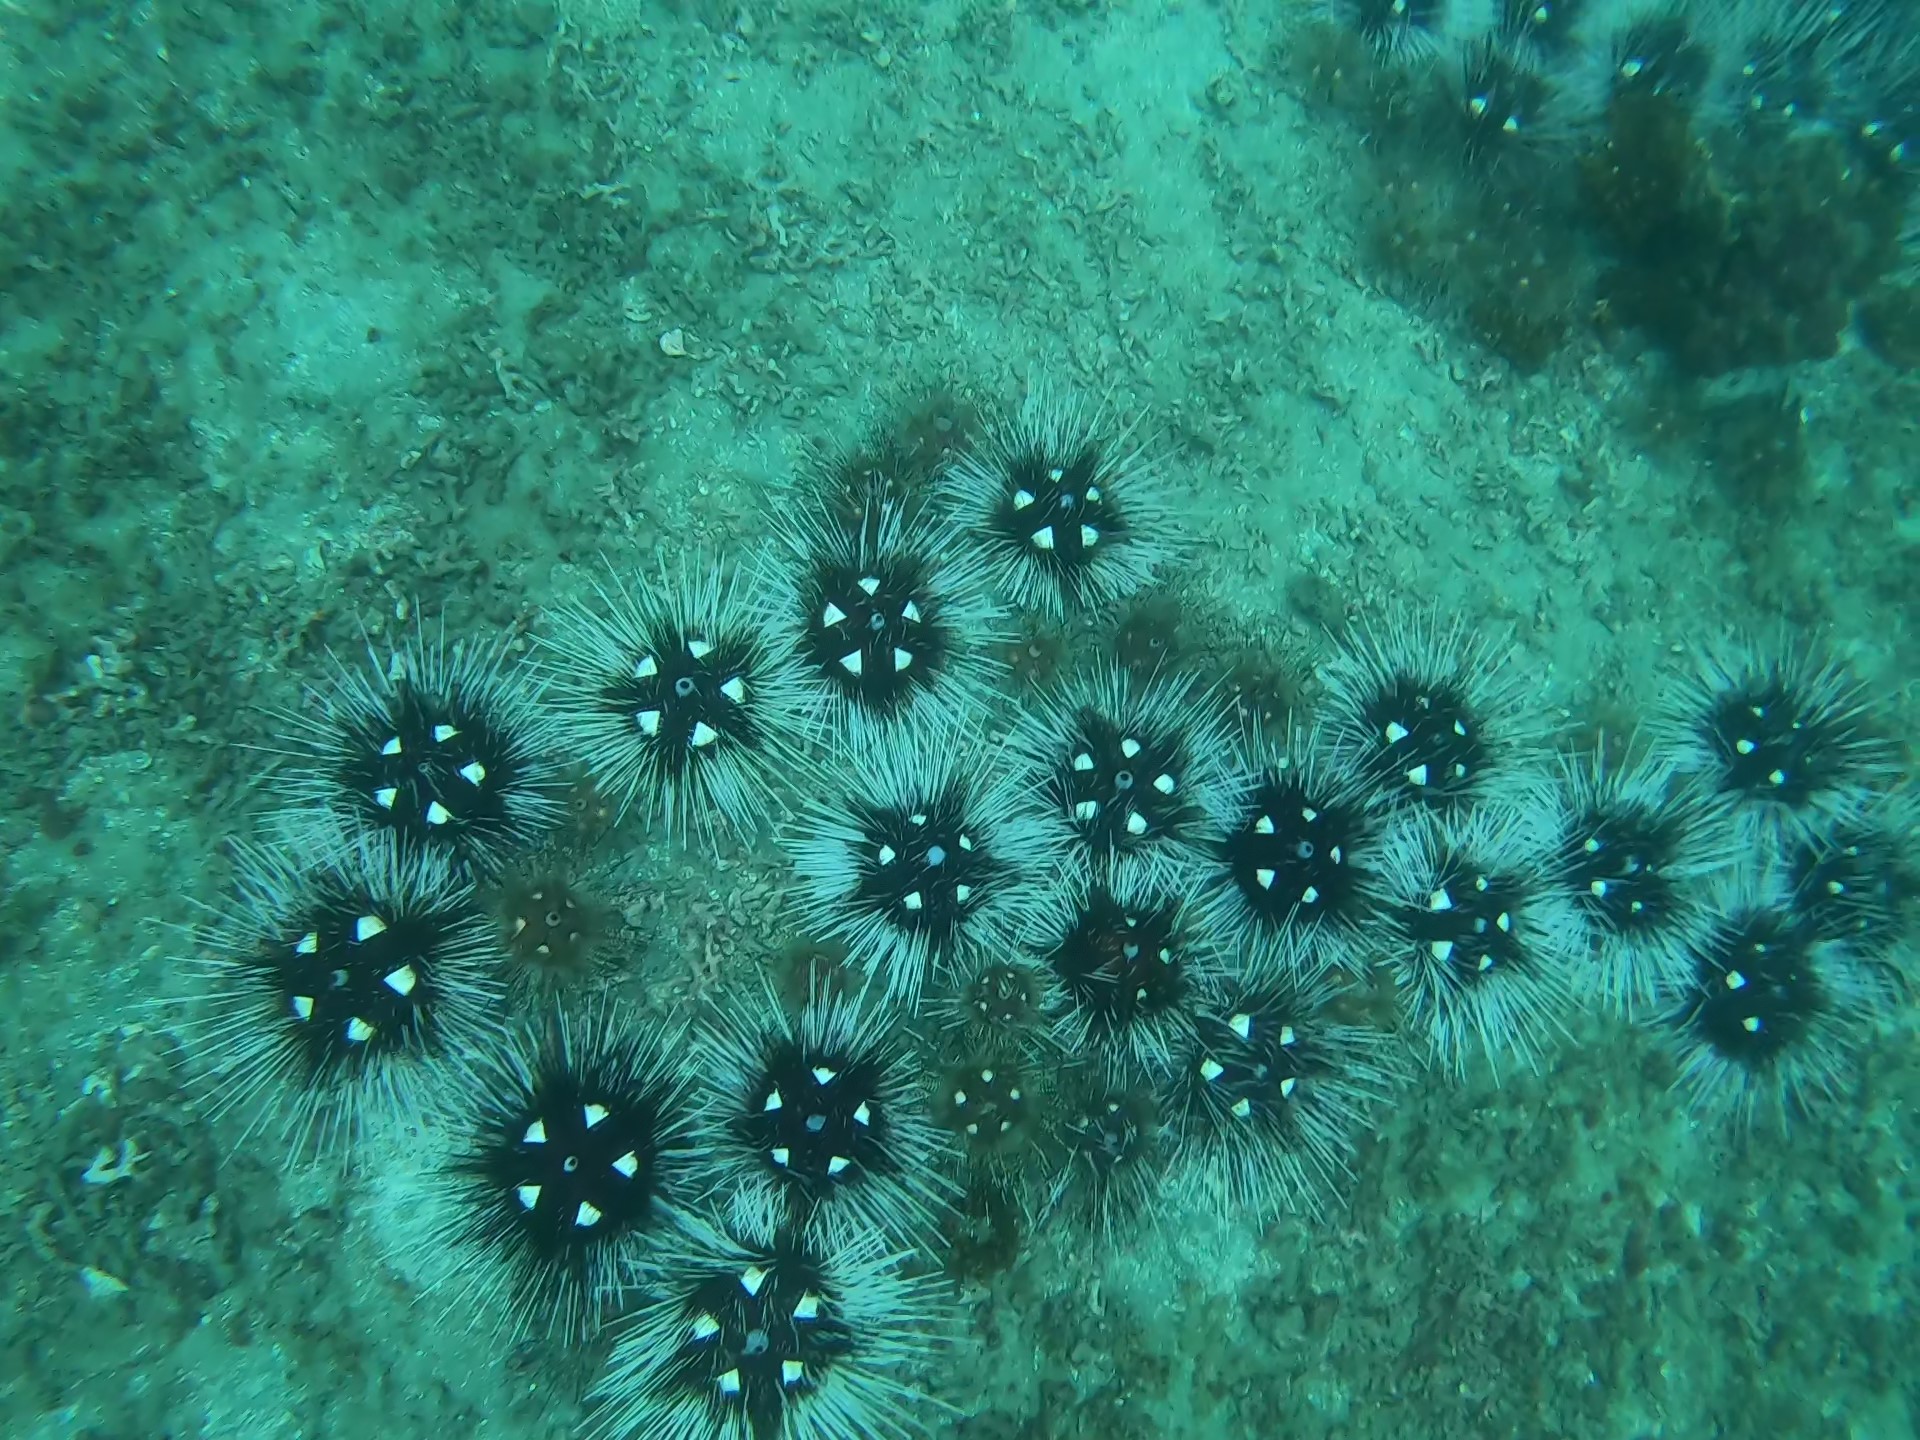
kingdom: Animalia
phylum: Echinodermata
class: Echinoidea
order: Diadematoida
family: Diadematidae
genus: Astropyga
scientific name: Astropyga pulvinata
